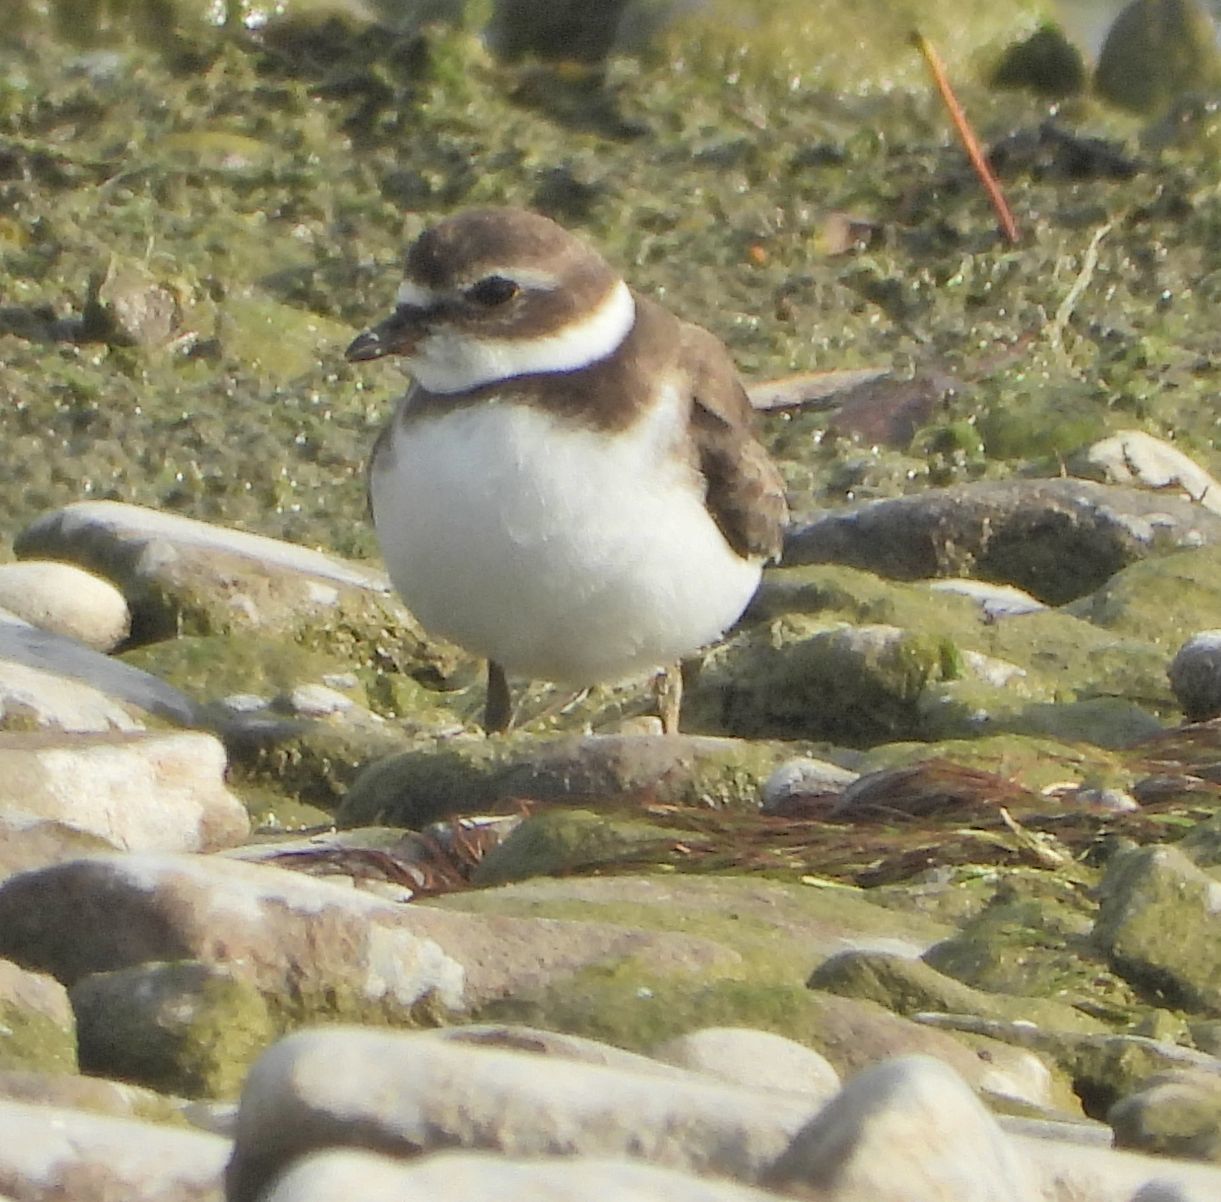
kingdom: Animalia
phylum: Chordata
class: Aves
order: Charadriiformes
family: Charadriidae
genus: Charadrius
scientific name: Charadrius semipalmatus
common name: Semipalmated plover
